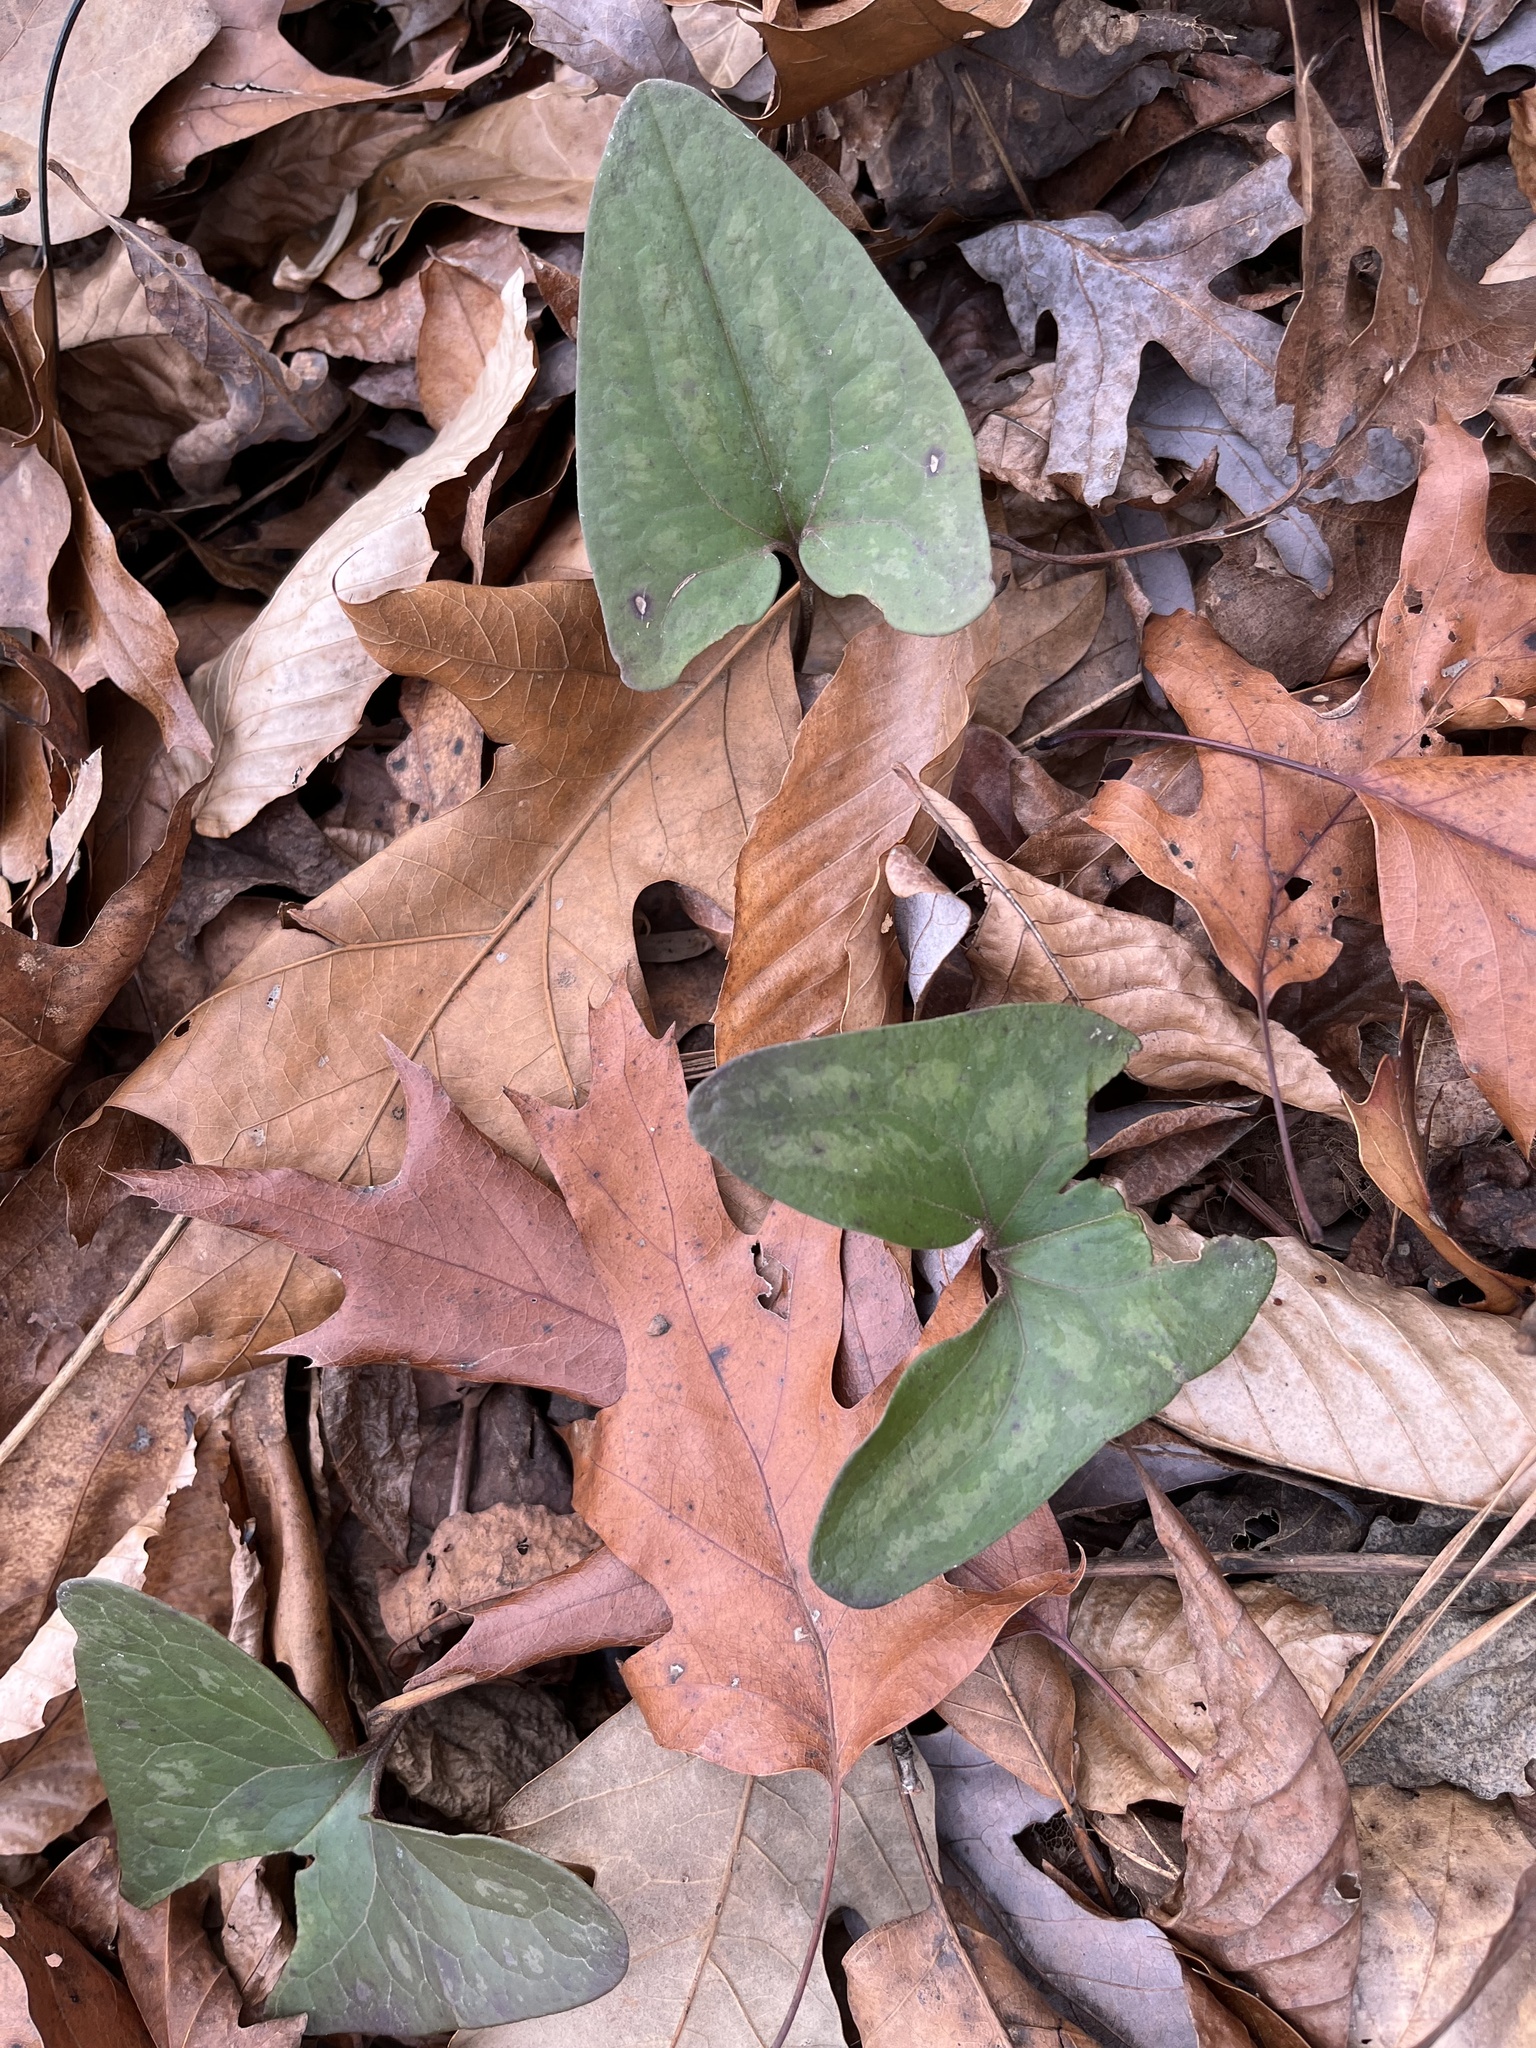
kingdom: Plantae
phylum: Tracheophyta
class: Magnoliopsida
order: Piperales
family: Aristolochiaceae
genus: Hexastylis
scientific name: Hexastylis arifolia
